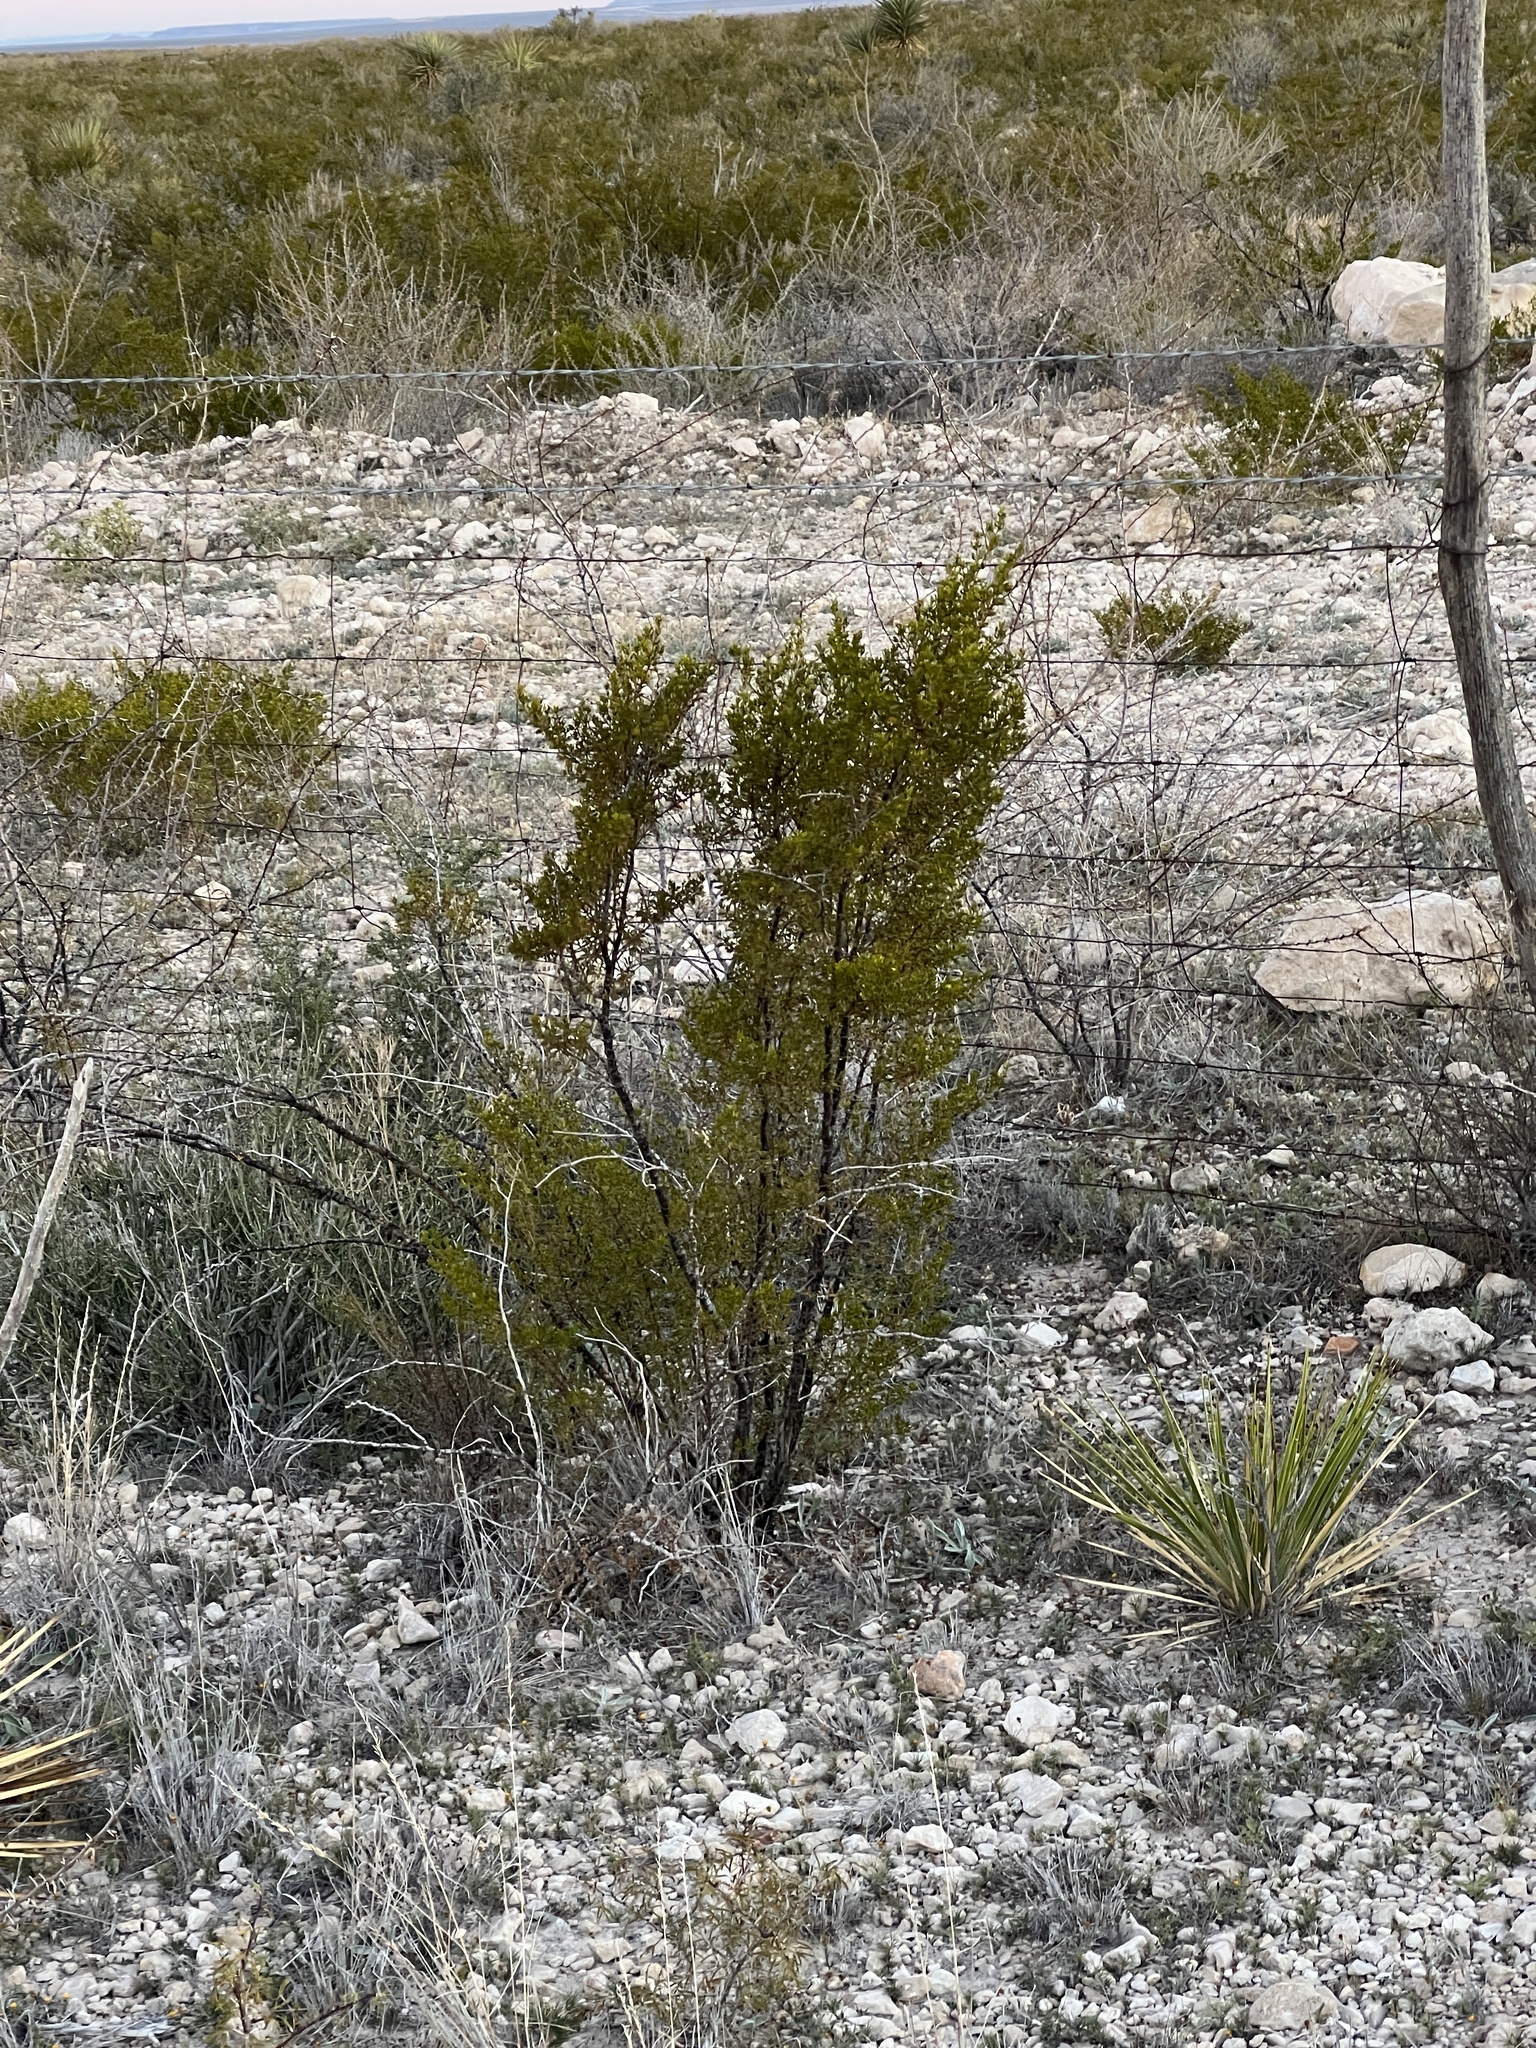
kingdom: Plantae
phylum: Tracheophyta
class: Magnoliopsida
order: Zygophyllales
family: Zygophyllaceae
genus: Larrea
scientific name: Larrea tridentata
